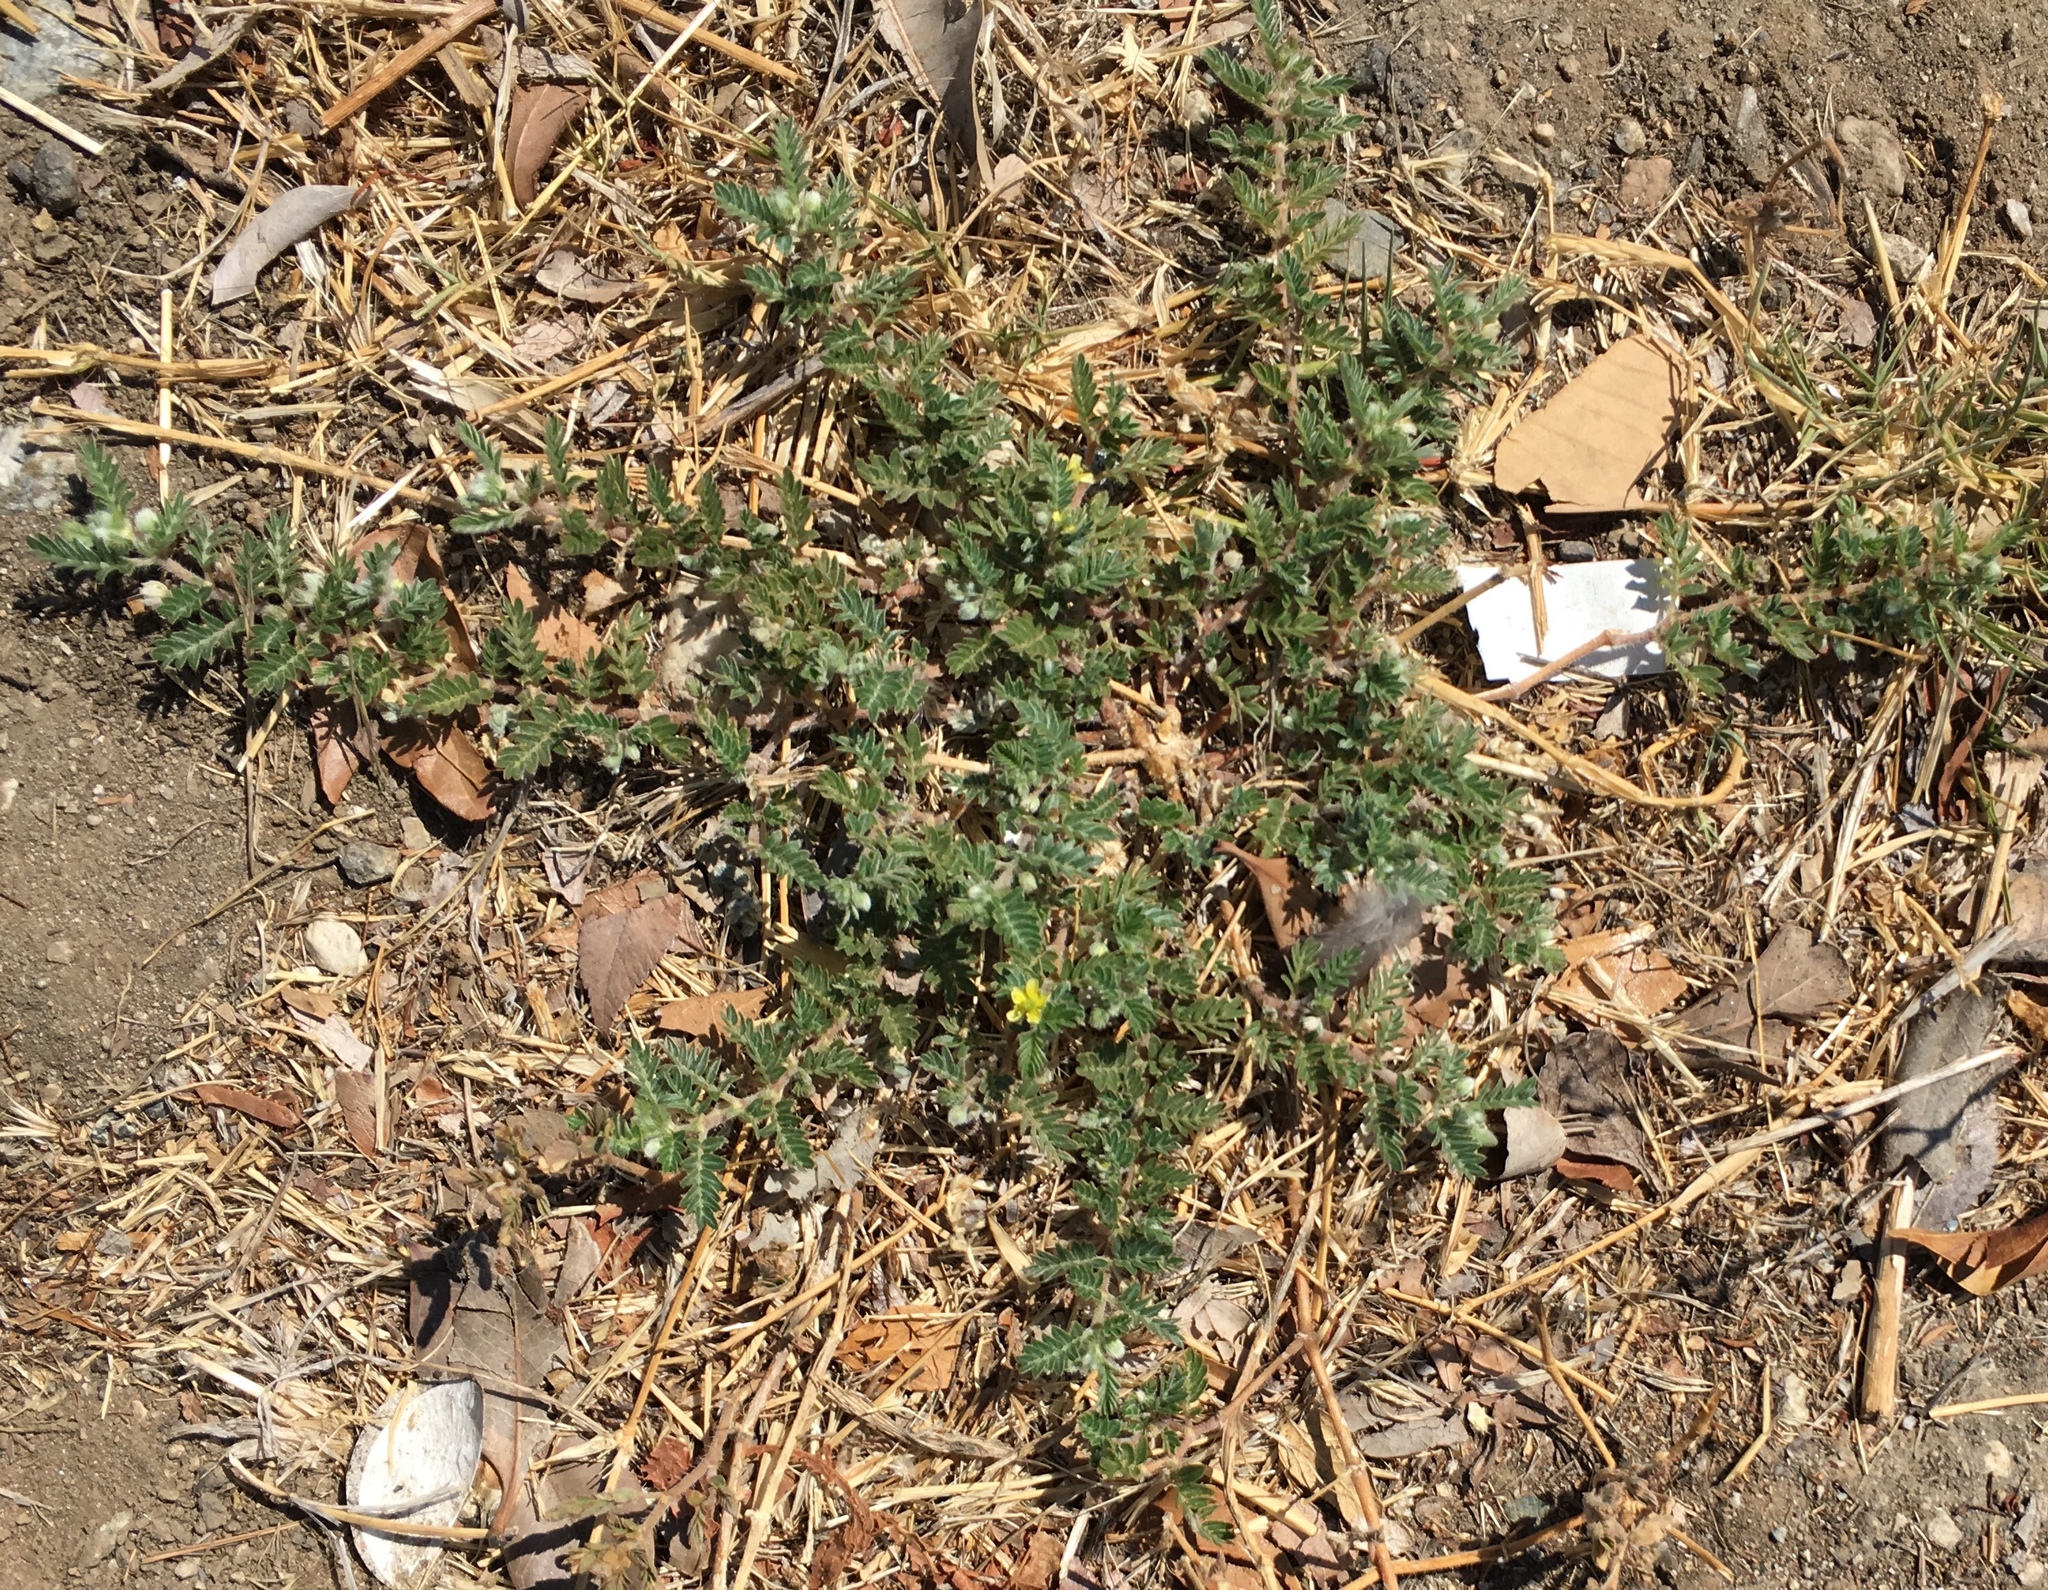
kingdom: Plantae
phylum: Tracheophyta
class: Magnoliopsida
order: Zygophyllales
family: Zygophyllaceae
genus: Tribulus
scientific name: Tribulus terrestris
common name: Puncturevine
